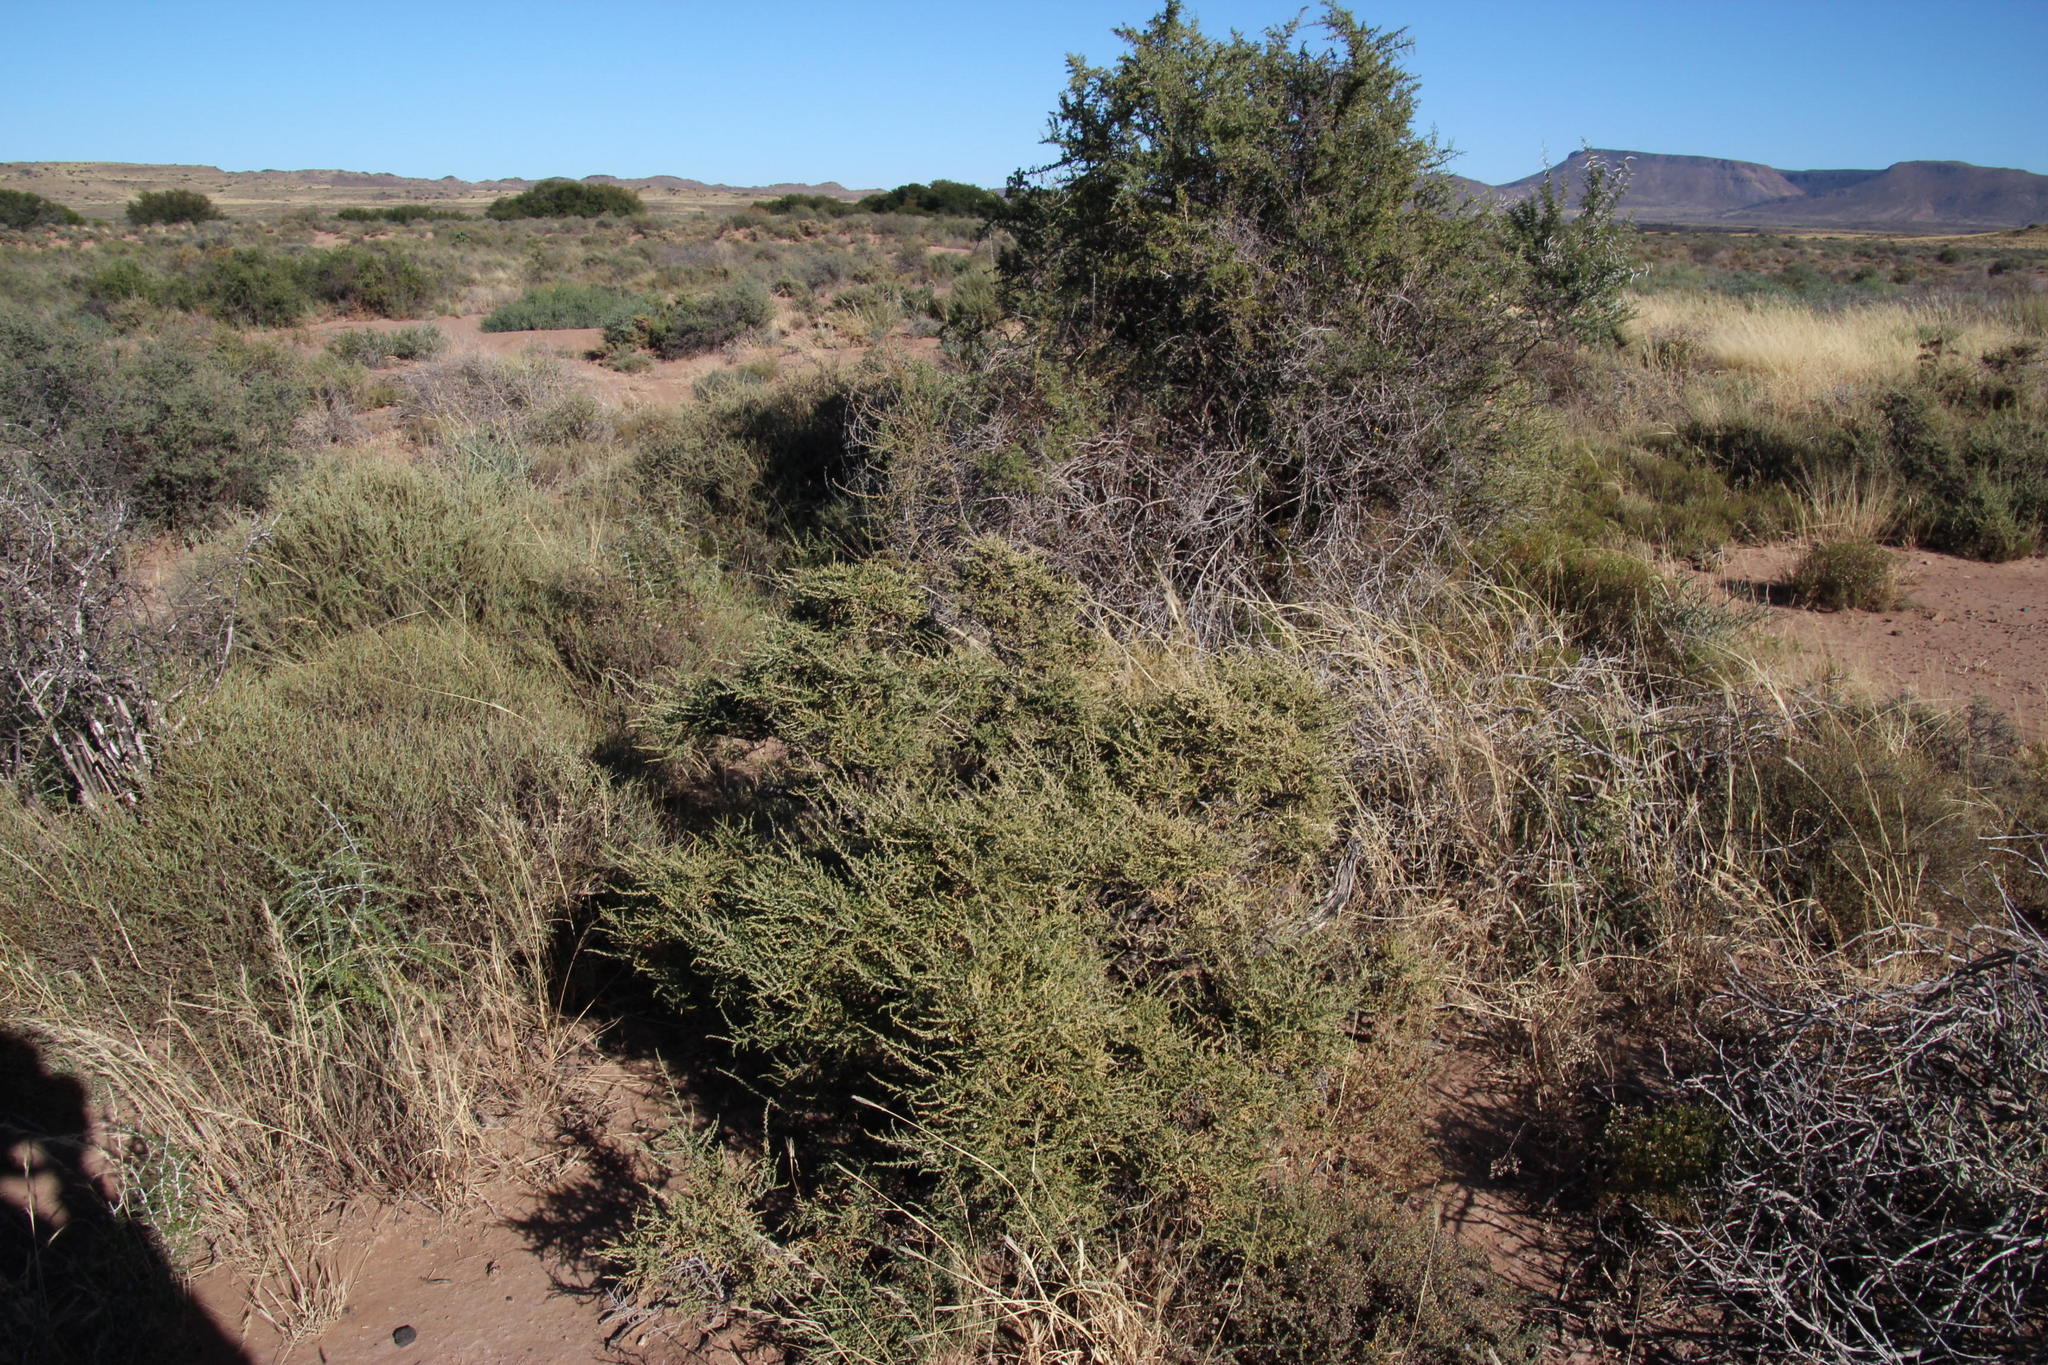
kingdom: Plantae
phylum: Tracheophyta
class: Magnoliopsida
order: Caryophyllales
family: Amaranthaceae
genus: Caroxylon
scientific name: Caroxylon aphyllum
